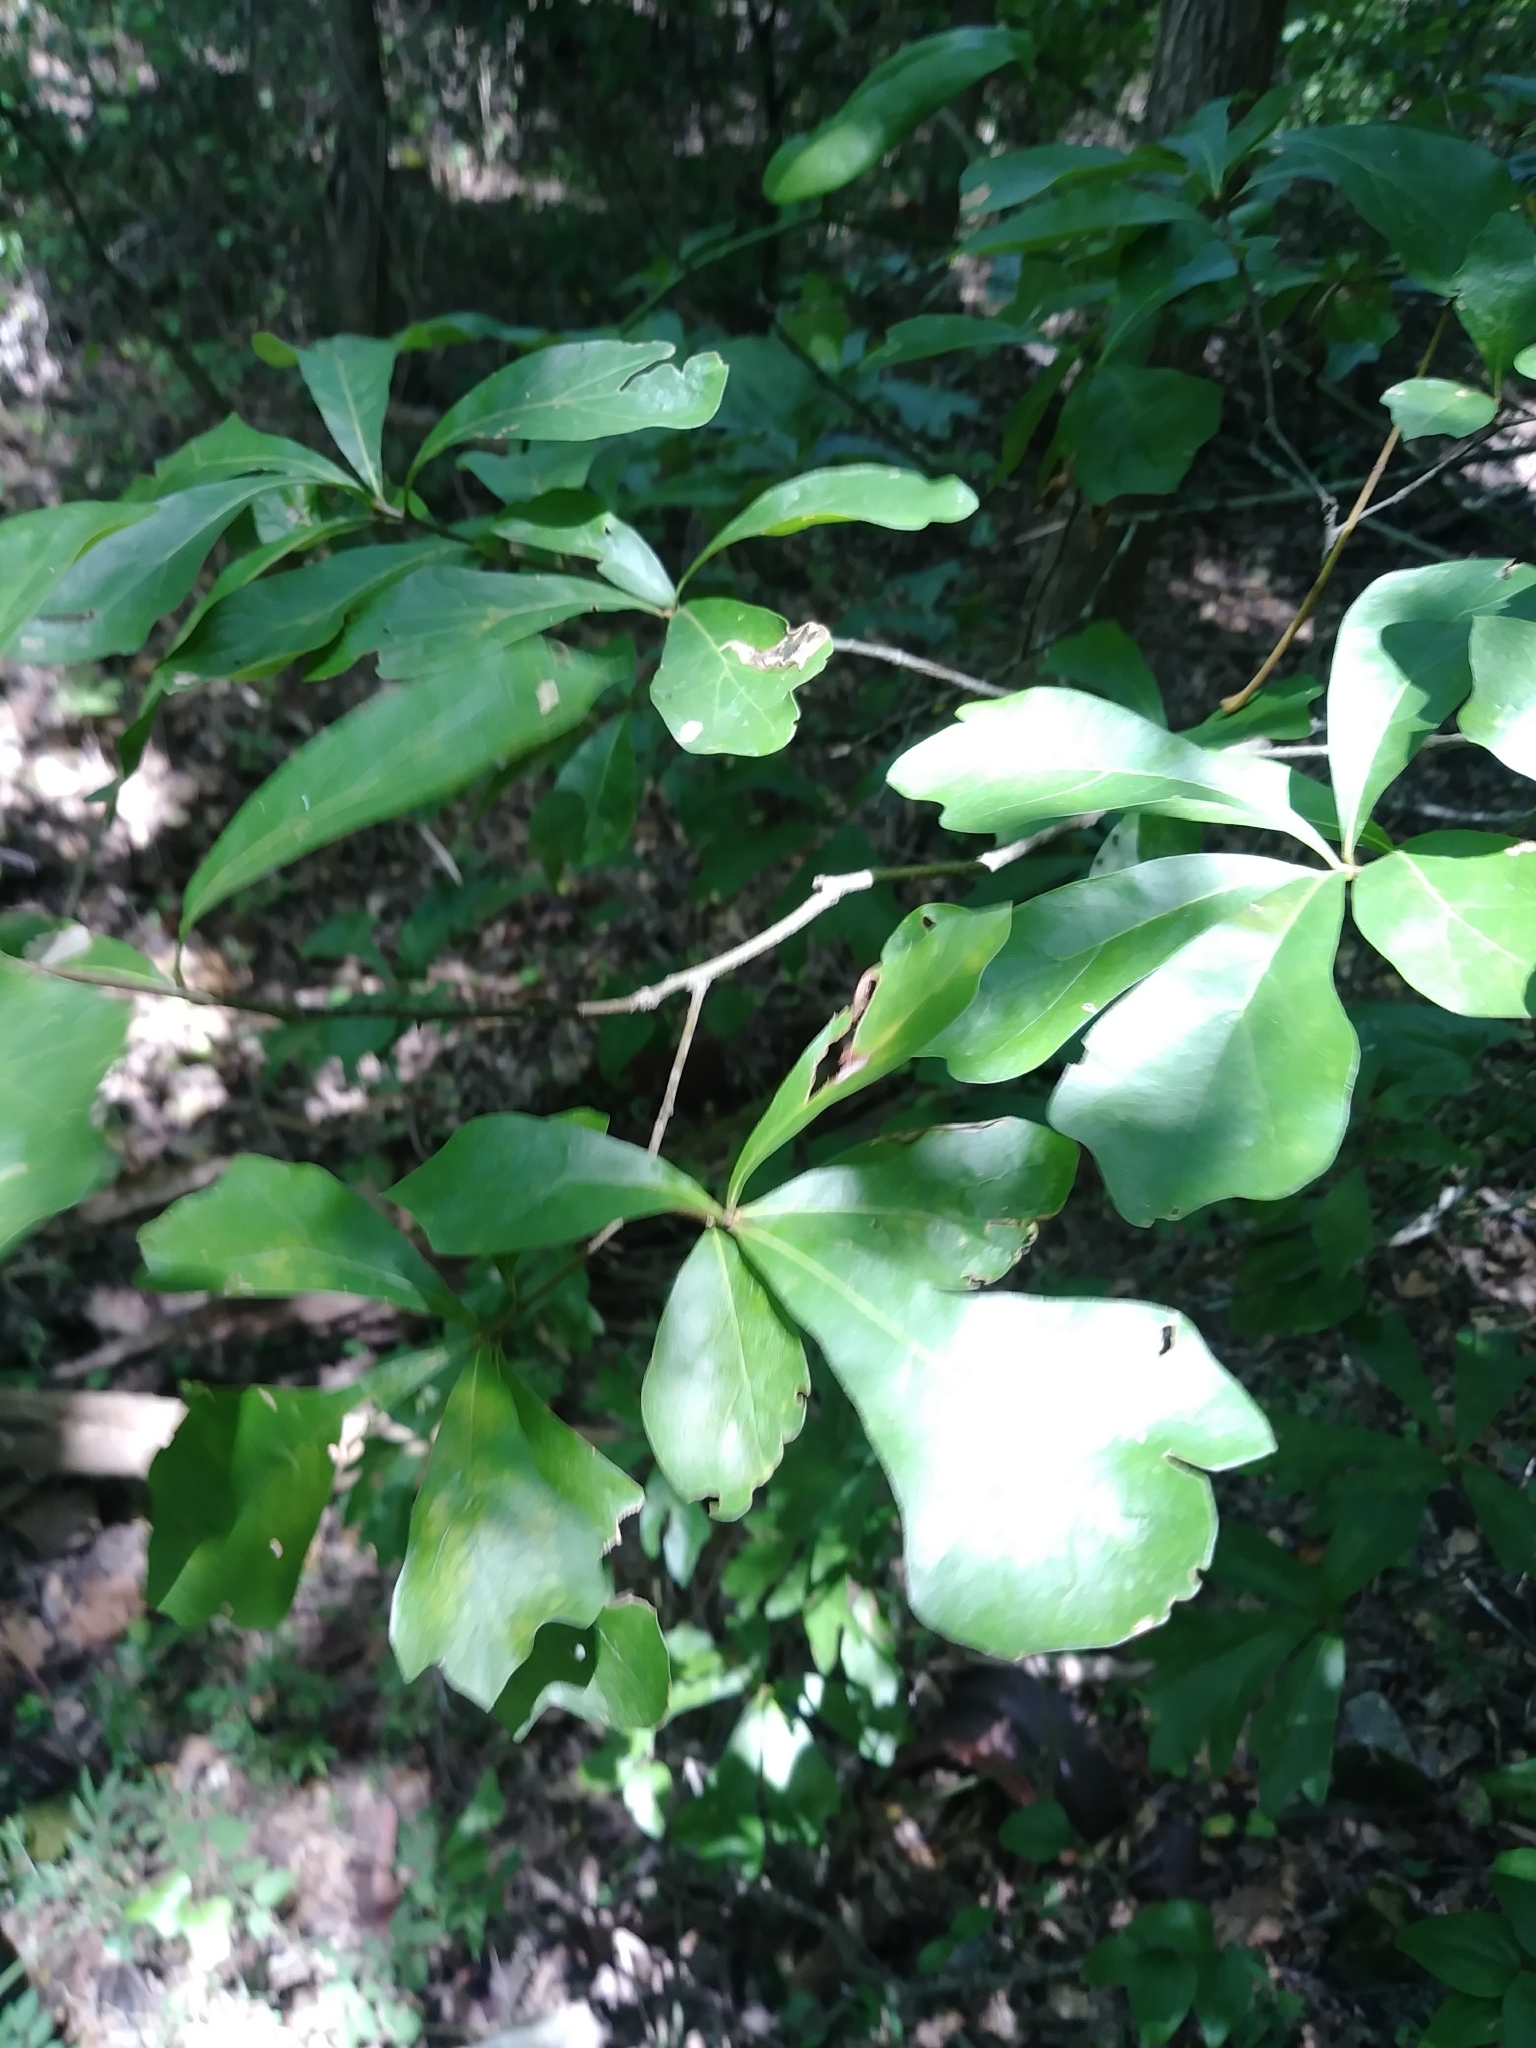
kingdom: Plantae
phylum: Tracheophyta
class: Magnoliopsida
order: Fagales
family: Fagaceae
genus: Quercus
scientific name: Quercus nigra
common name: Water oak
